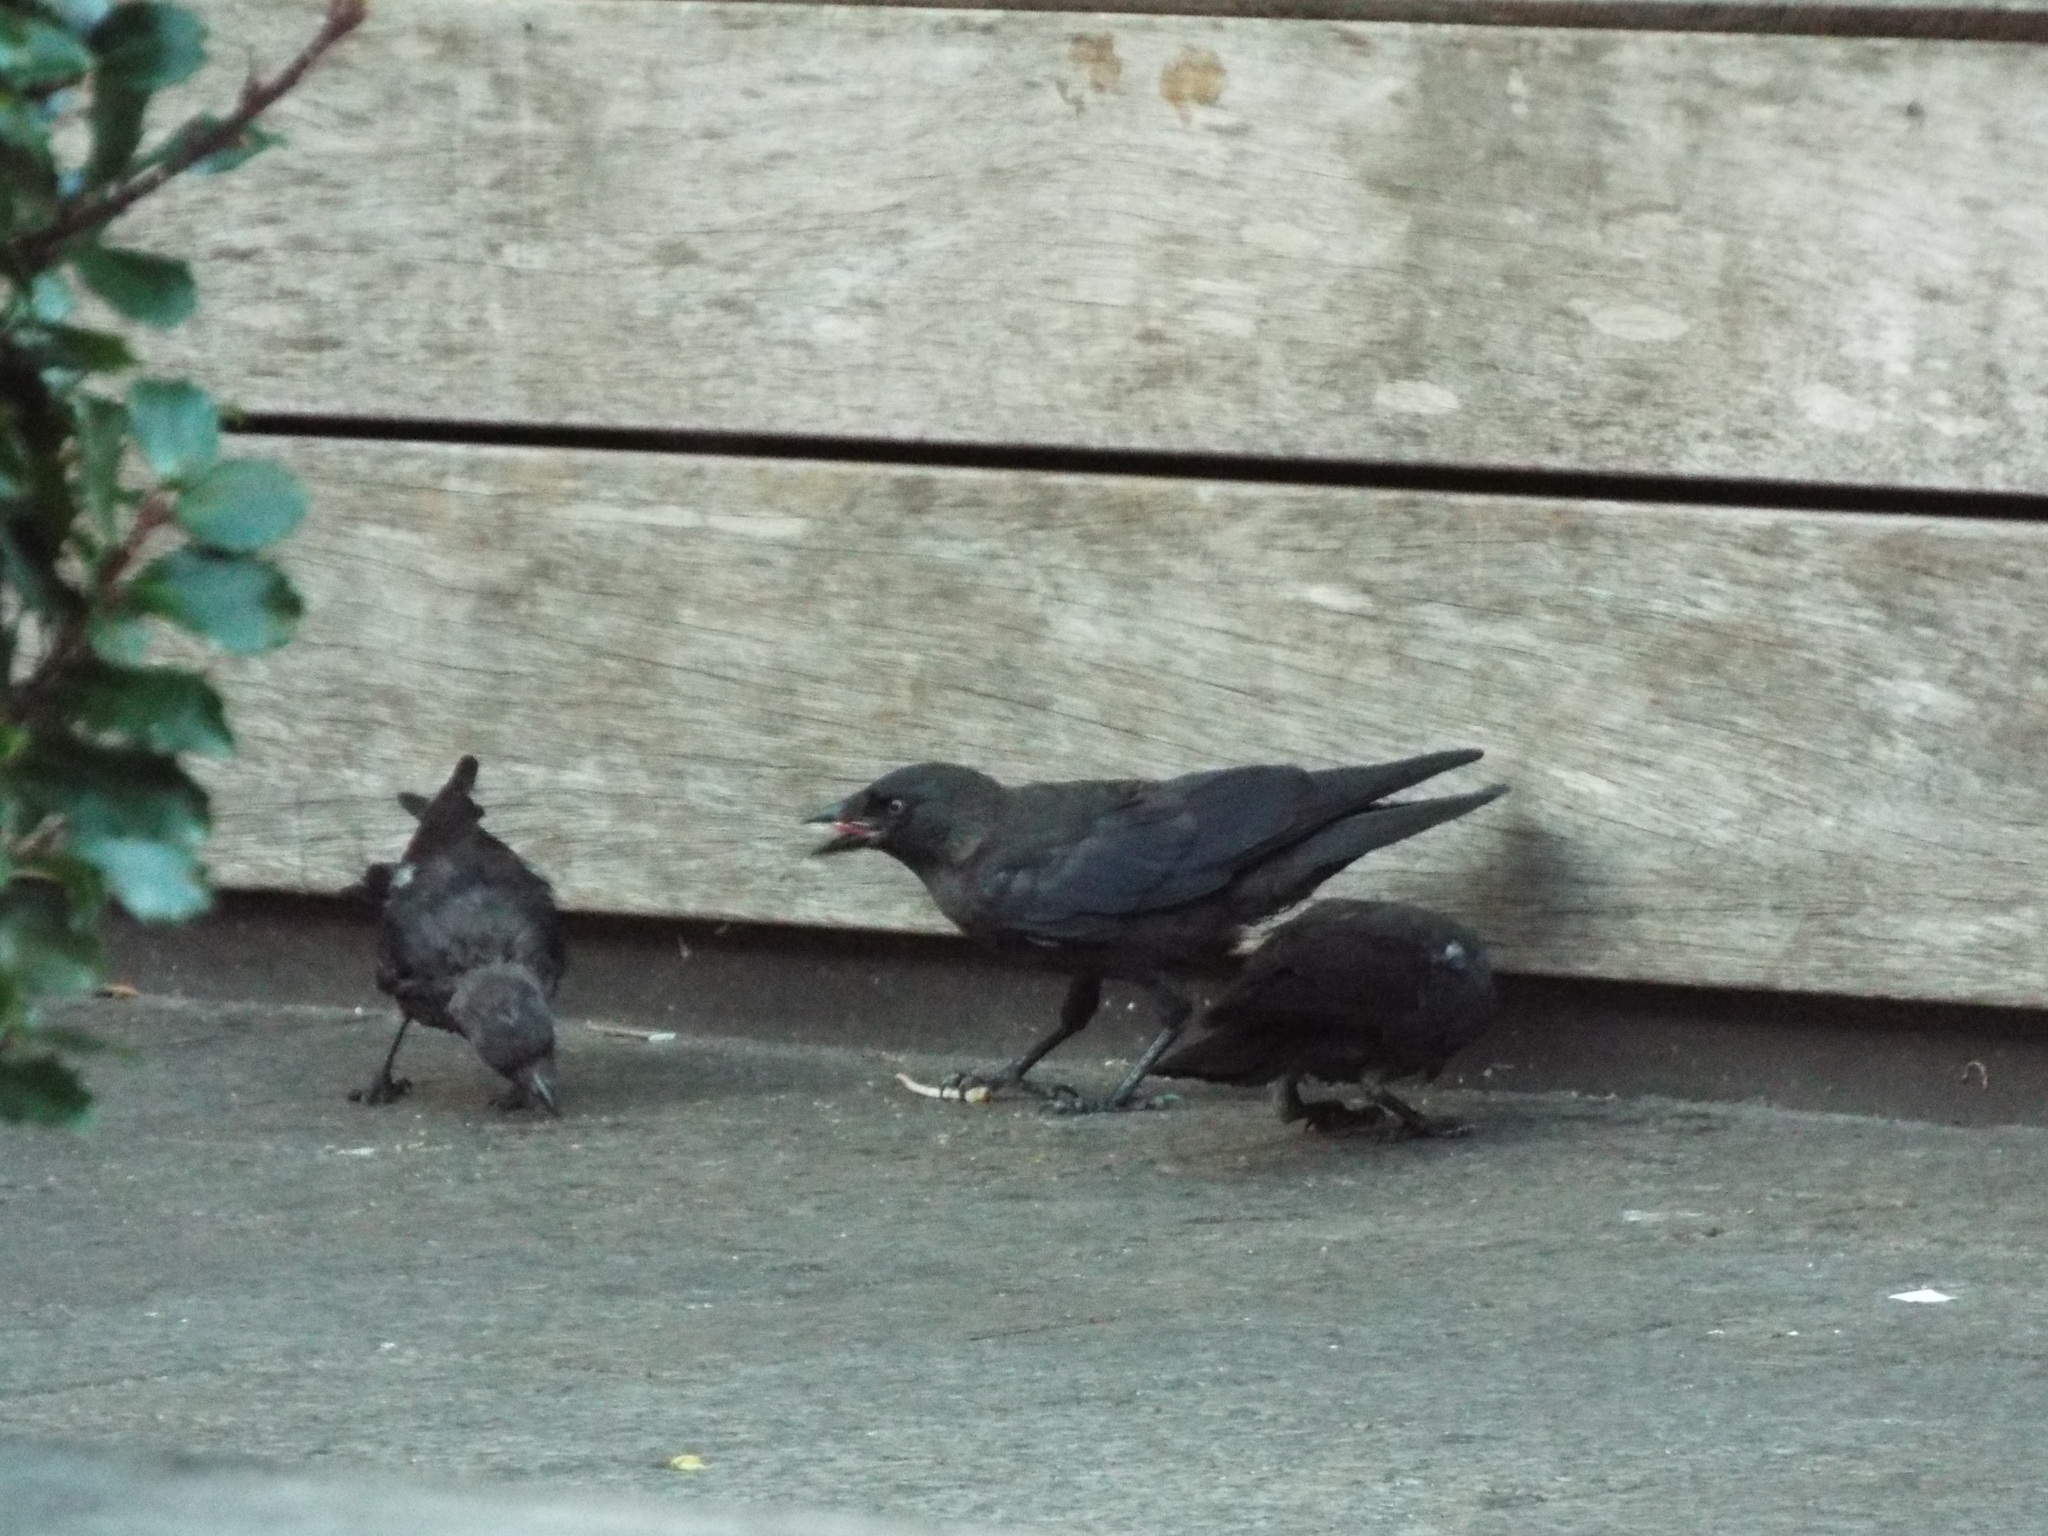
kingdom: Animalia
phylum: Chordata
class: Aves
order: Passeriformes
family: Corvidae
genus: Coloeus
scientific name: Coloeus monedula
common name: Western jackdaw
